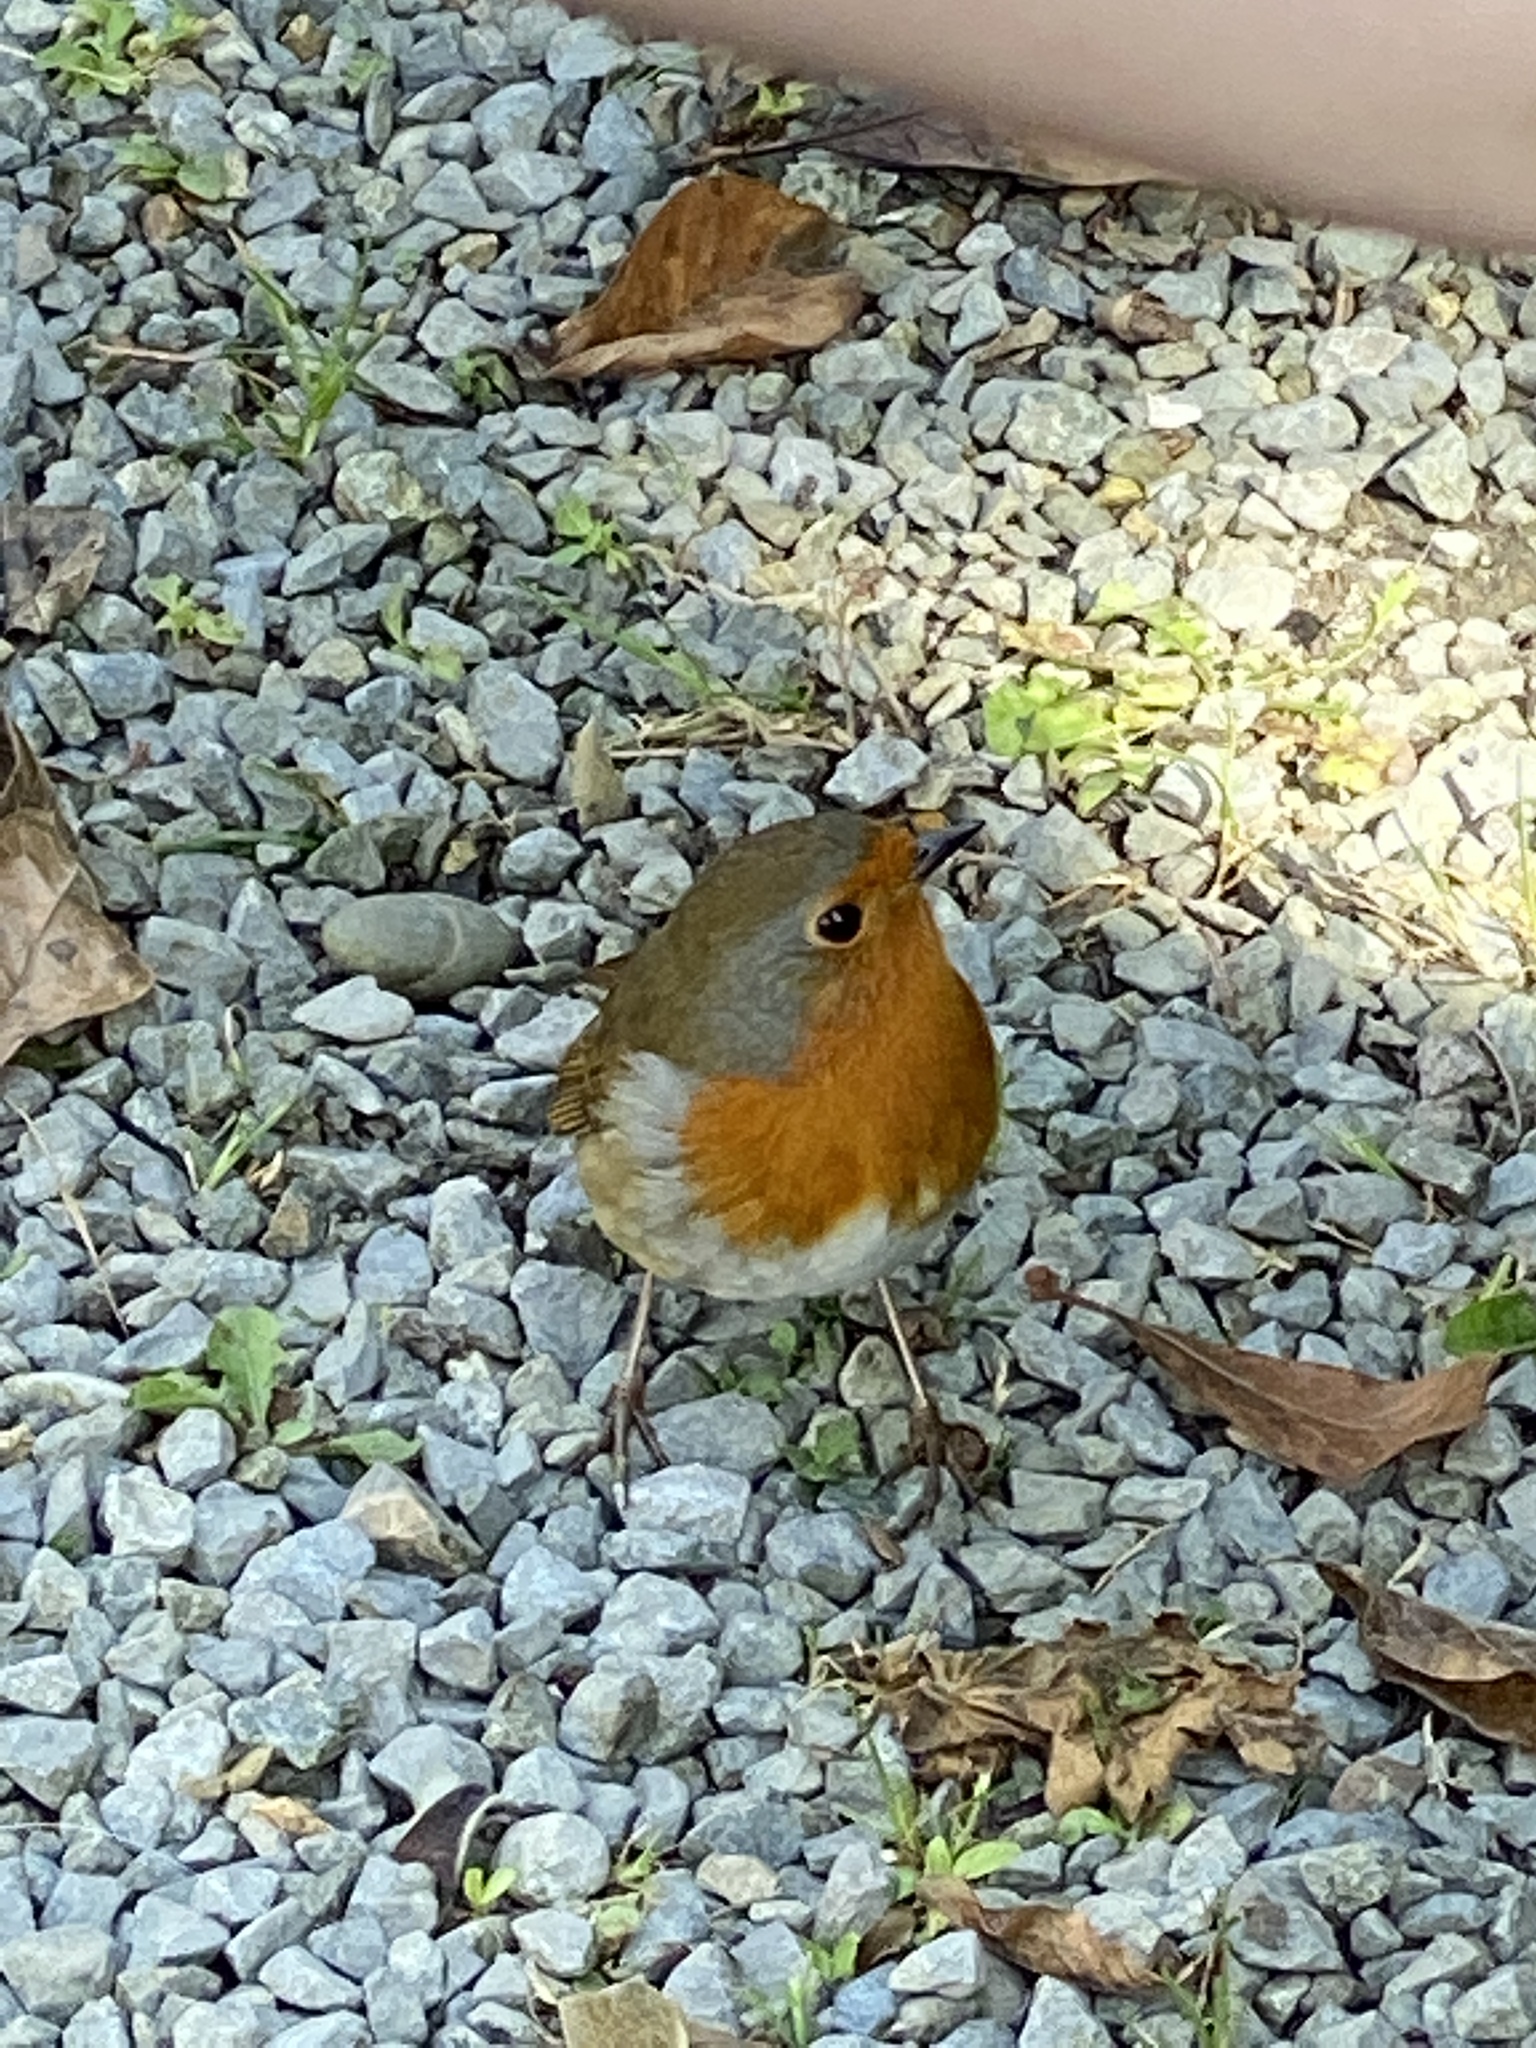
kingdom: Animalia
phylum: Chordata
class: Aves
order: Passeriformes
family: Muscicapidae
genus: Erithacus
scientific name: Erithacus rubecula
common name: European robin
